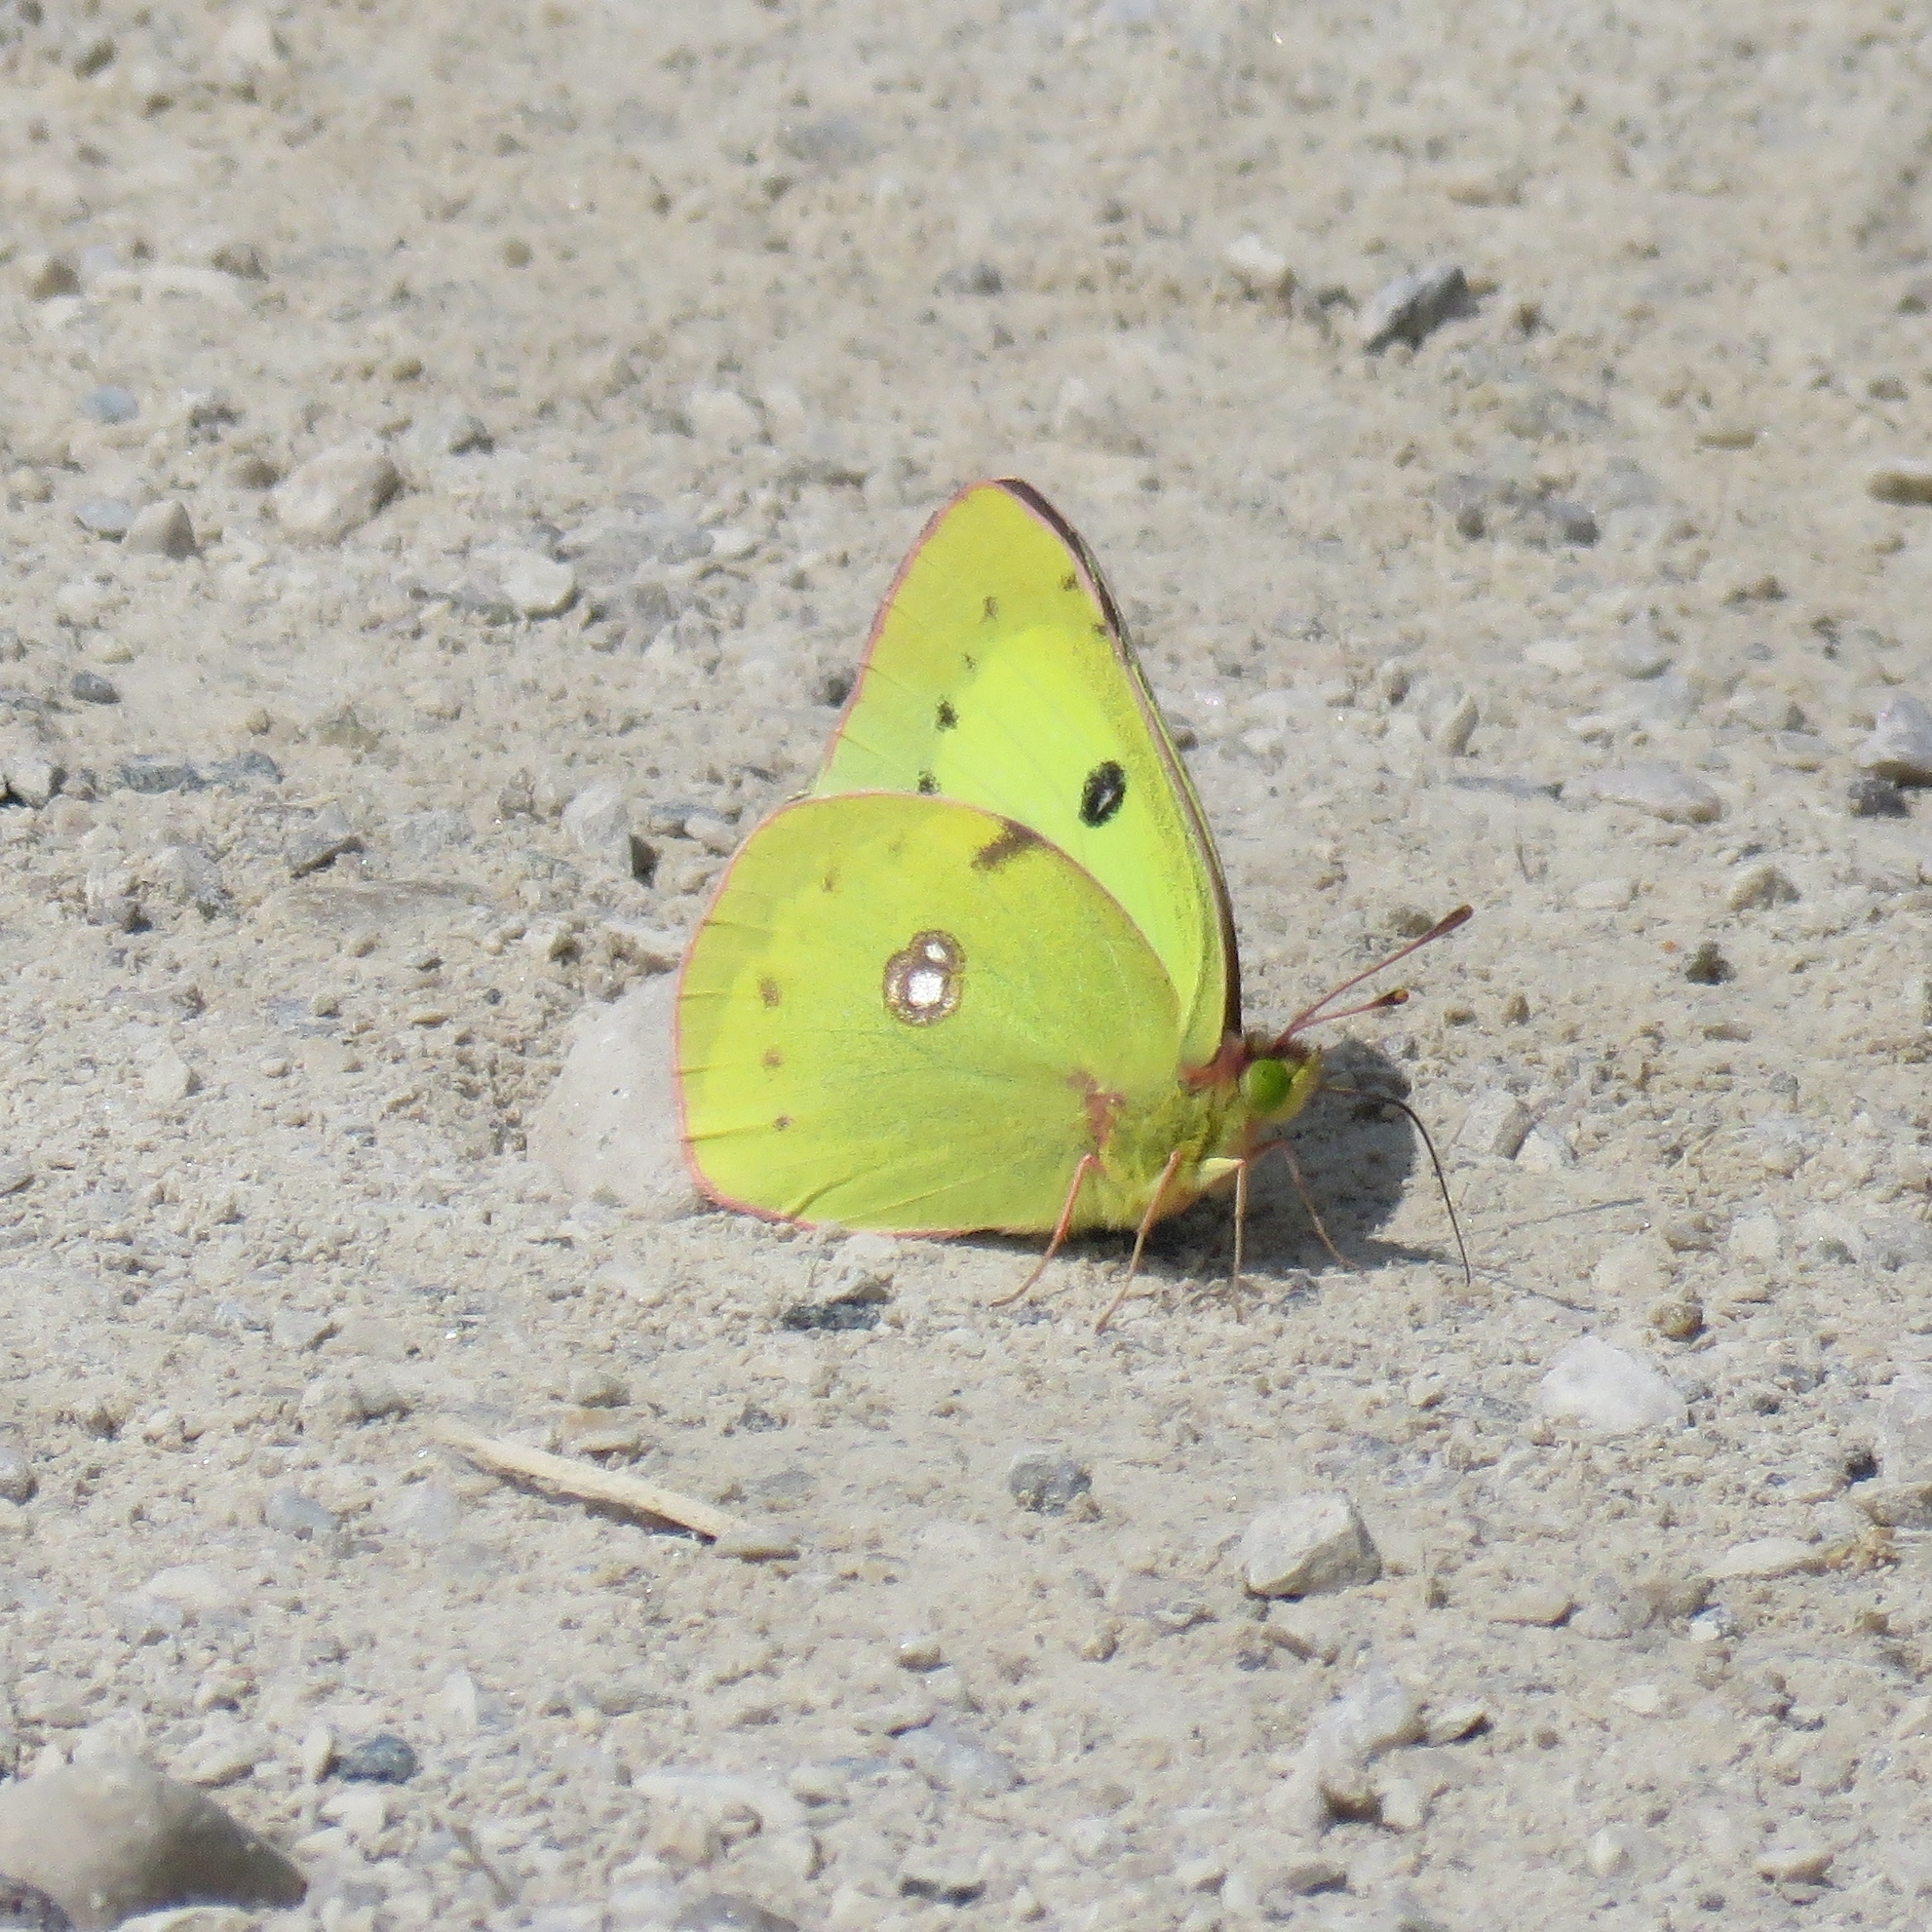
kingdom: Animalia
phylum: Arthropoda
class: Insecta
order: Lepidoptera
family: Pieridae
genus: Colias
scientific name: Colias philodice
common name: Clouded sulphur
